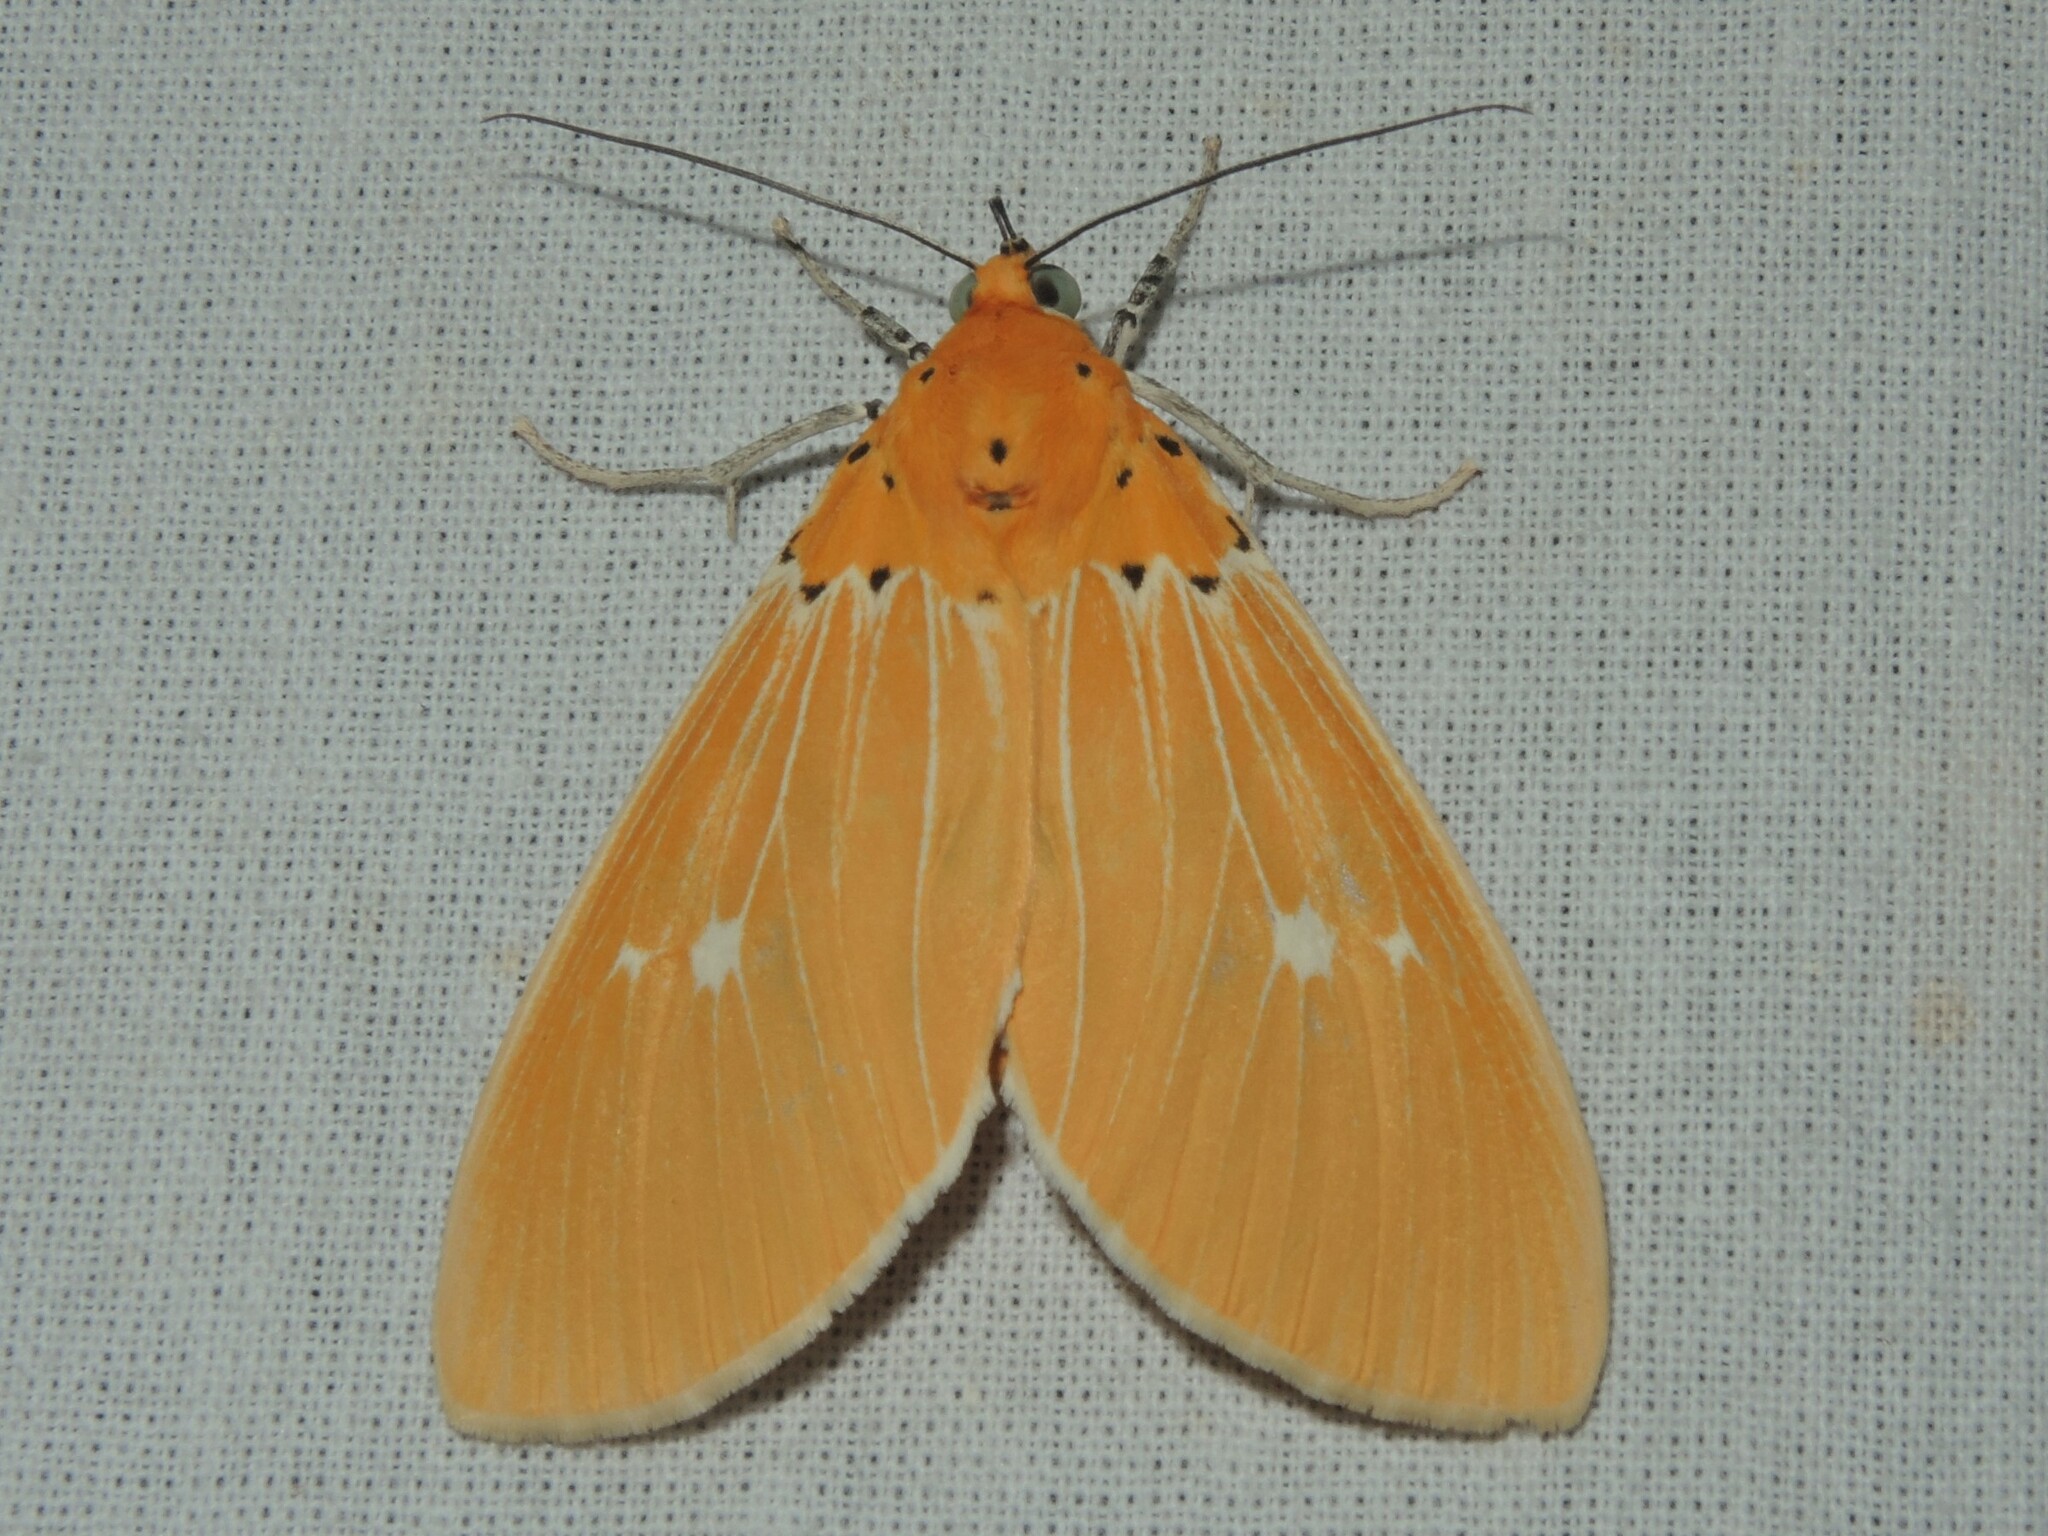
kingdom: Animalia
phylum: Arthropoda
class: Insecta
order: Lepidoptera
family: Erebidae
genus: Asota
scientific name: Asota sericea
